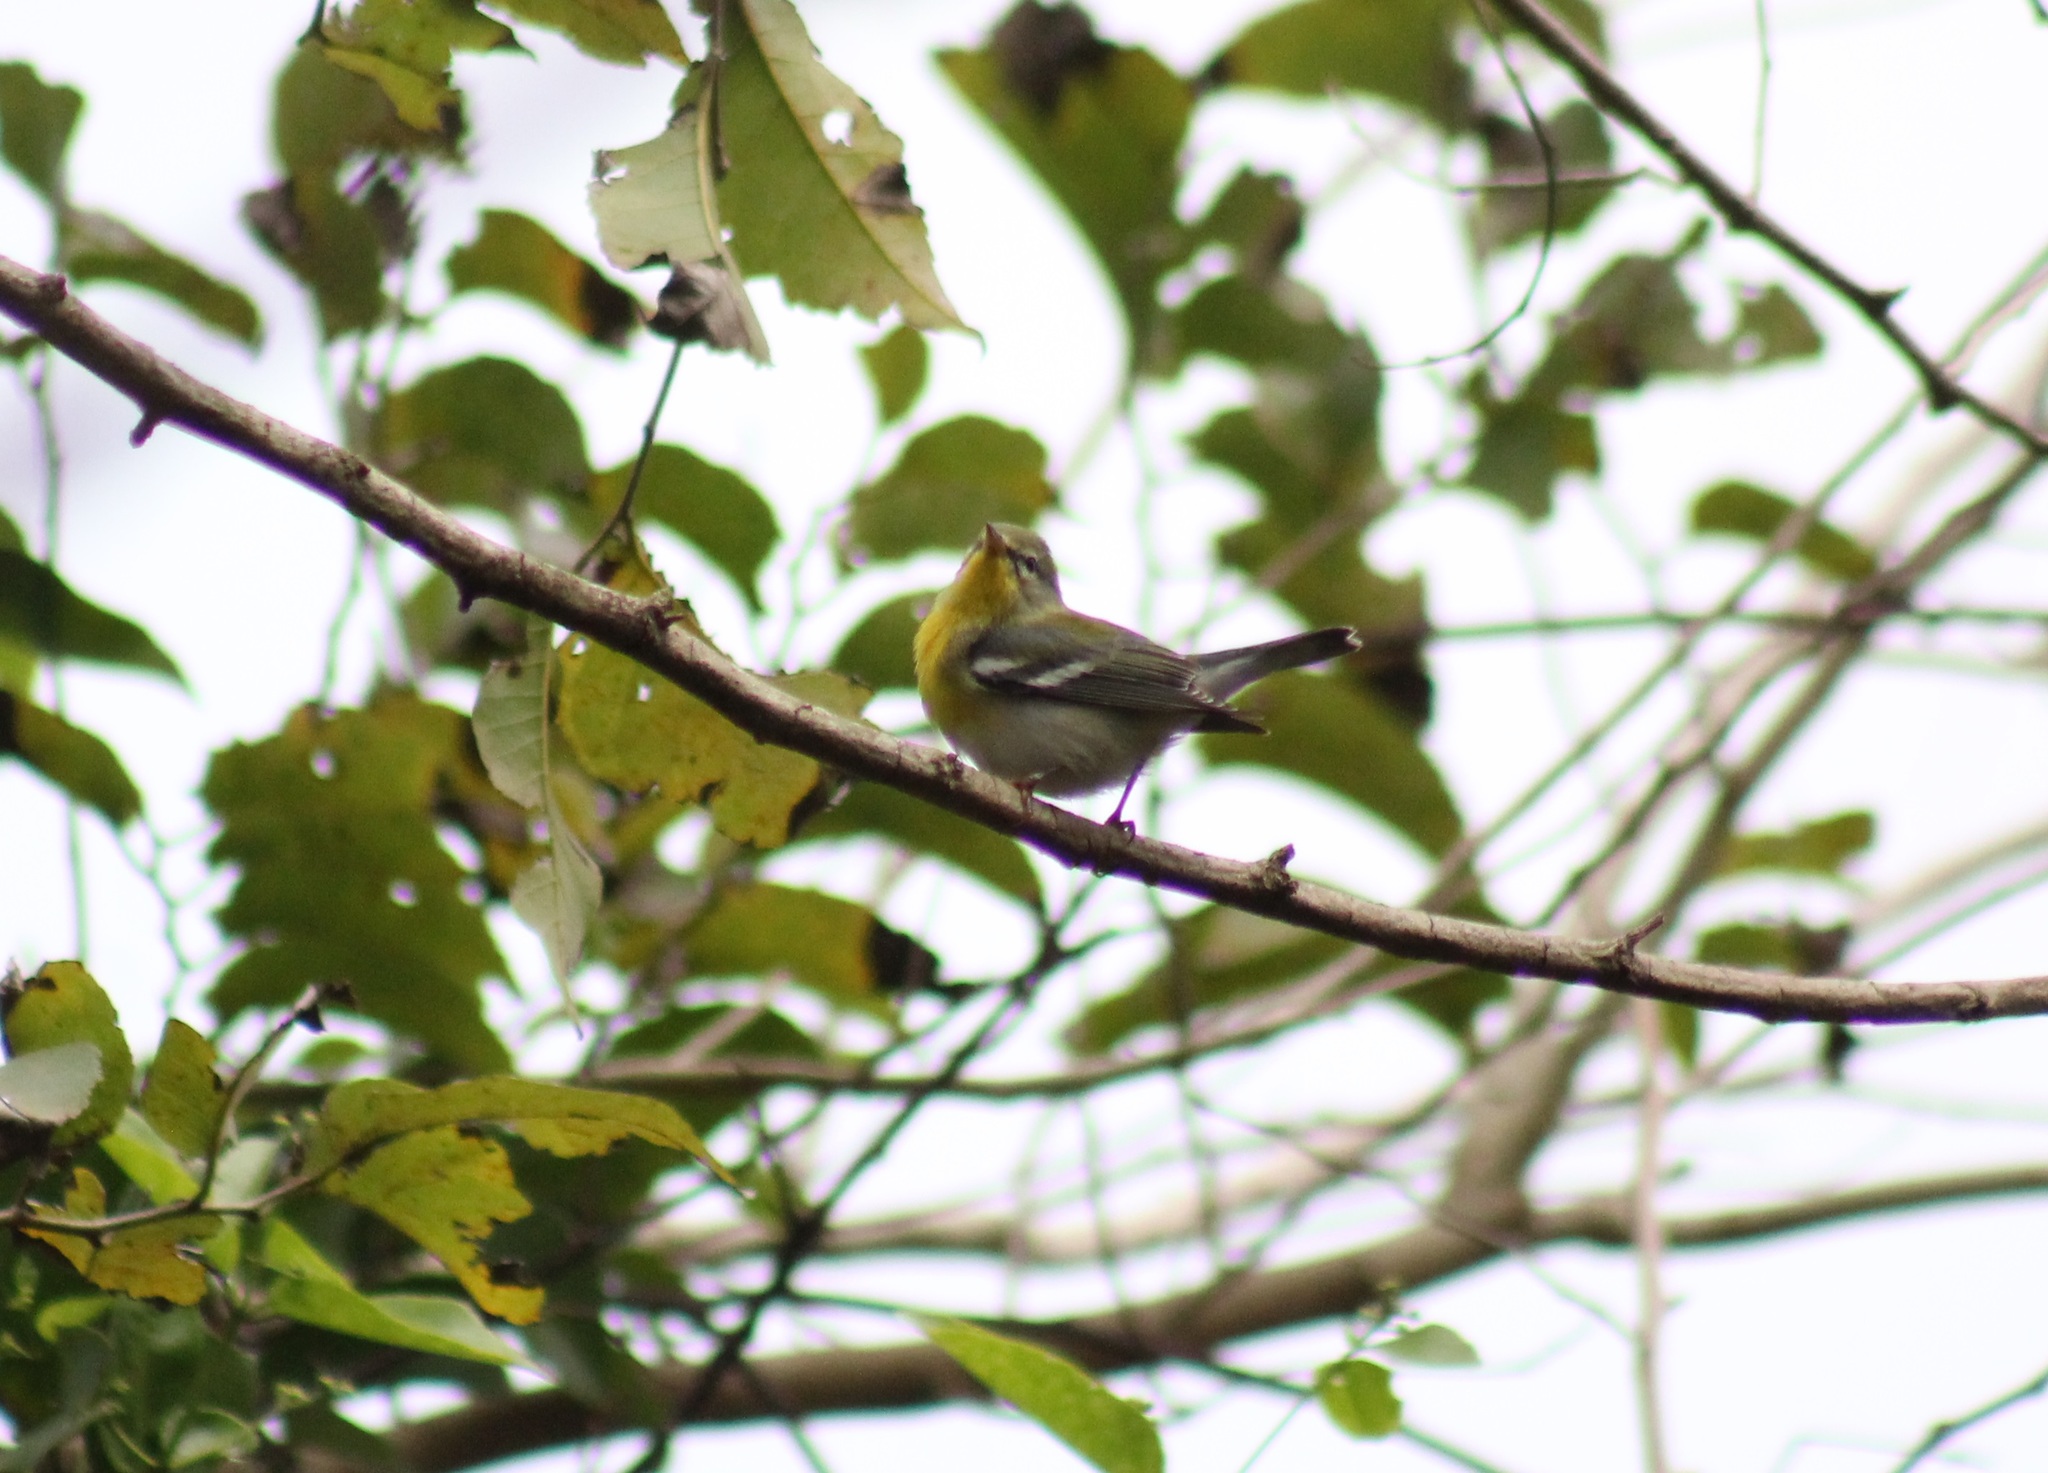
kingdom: Animalia
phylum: Chordata
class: Aves
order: Passeriformes
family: Parulidae
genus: Setophaga
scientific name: Setophaga americana
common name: Northern parula
